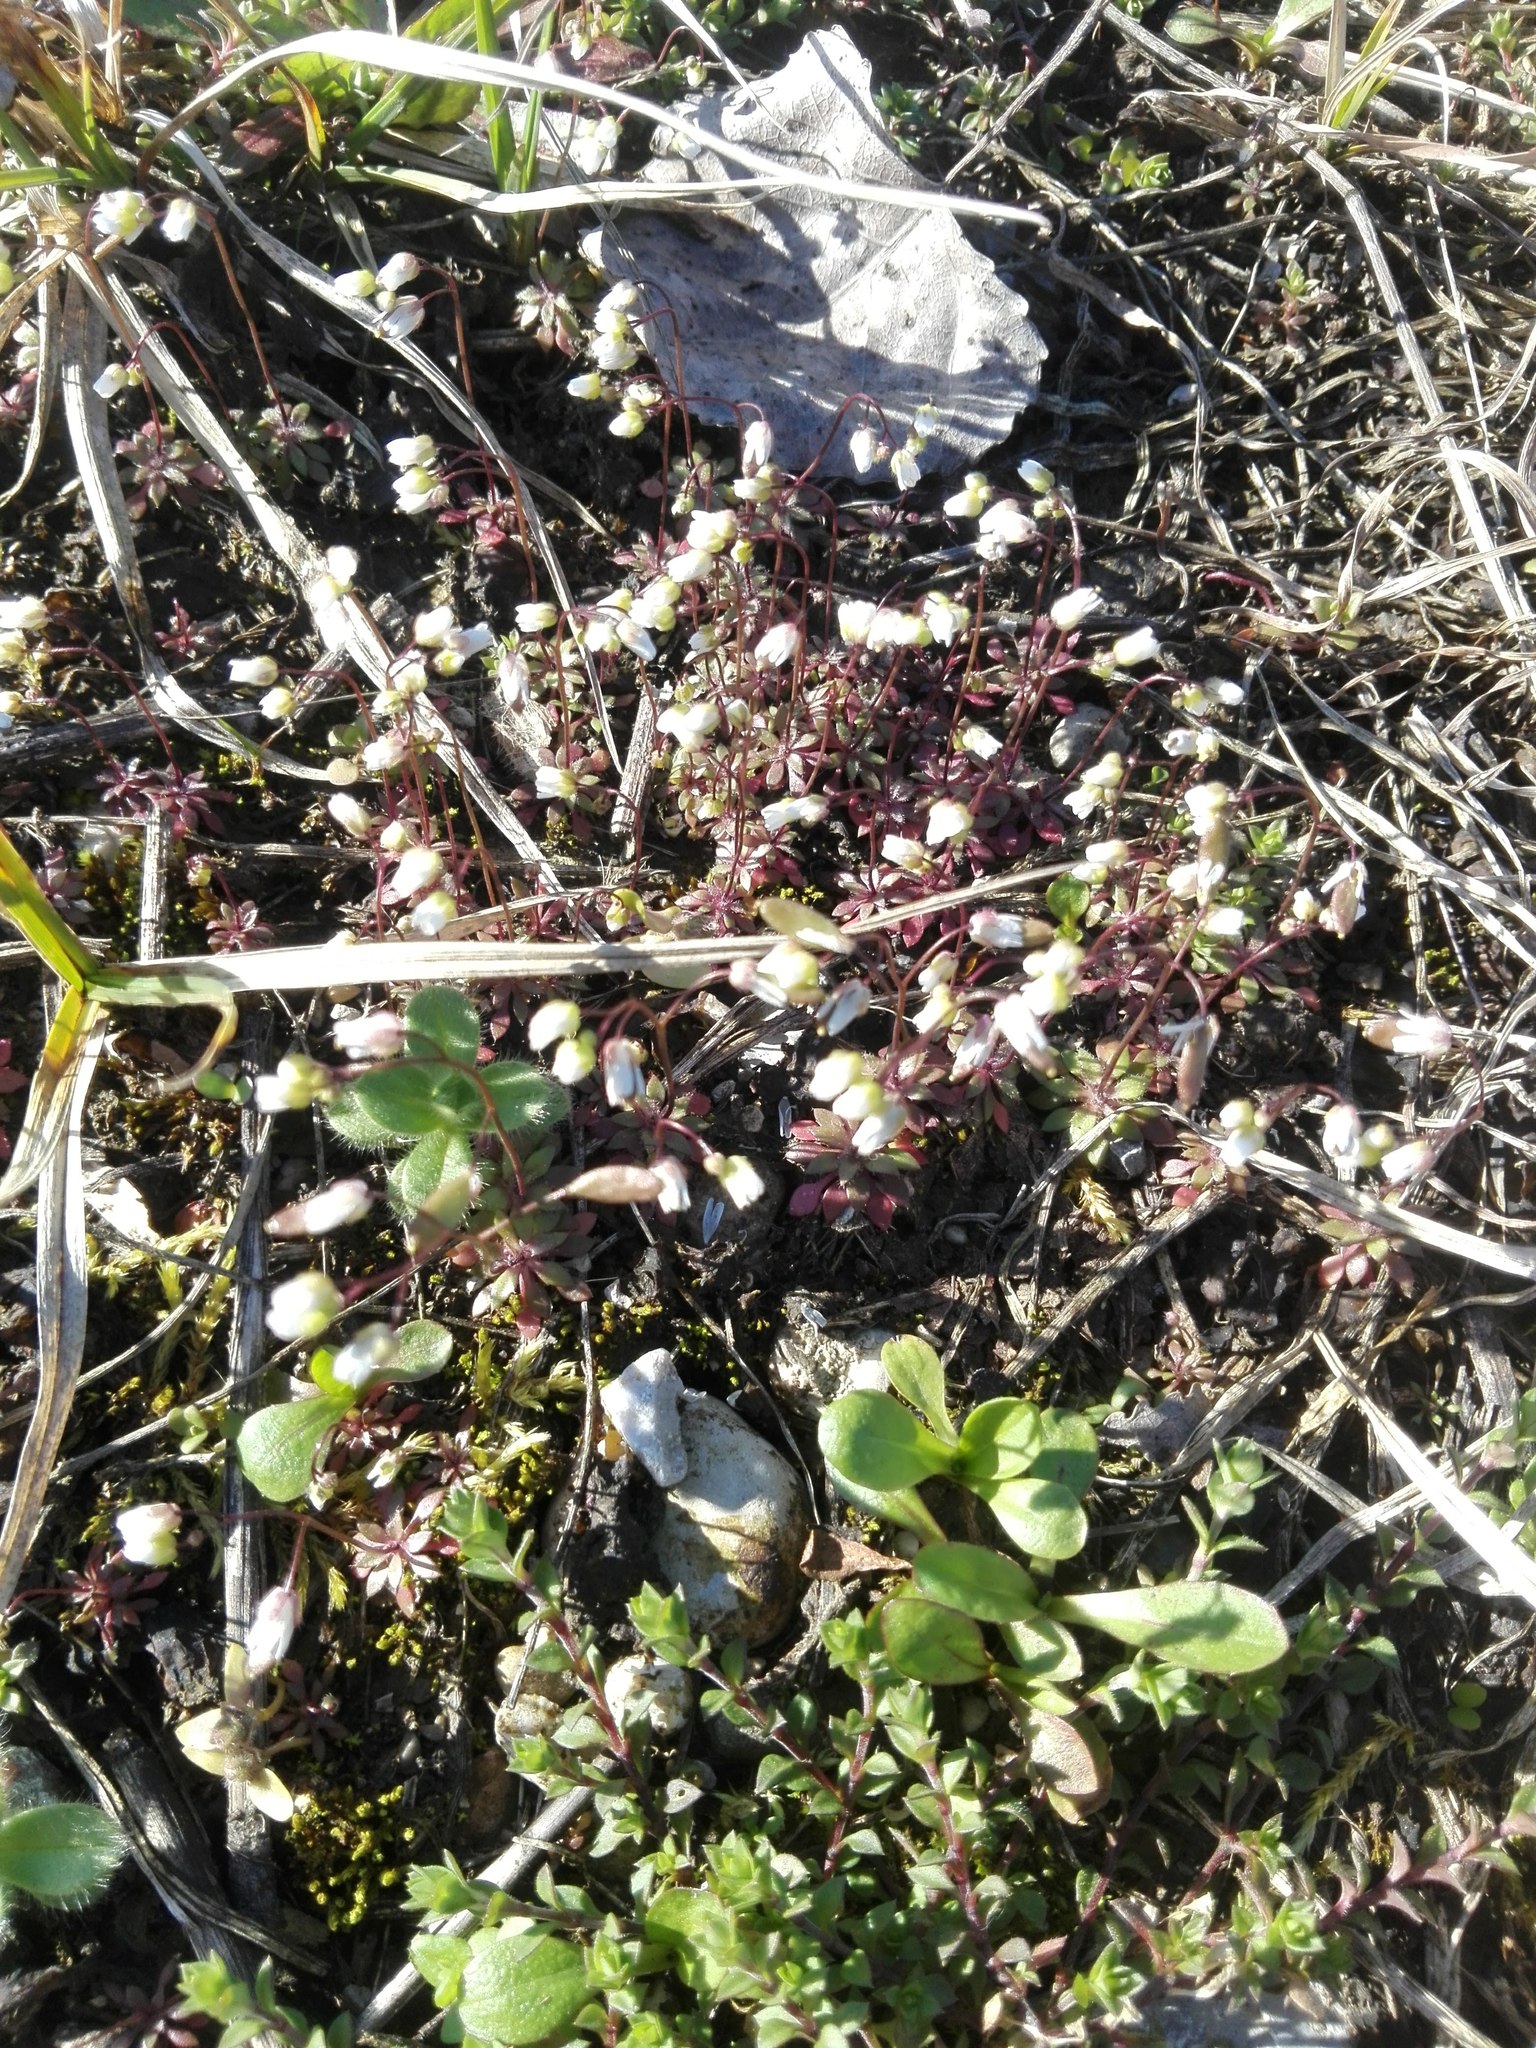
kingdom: Plantae
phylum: Tracheophyta
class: Magnoliopsida
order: Brassicales
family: Brassicaceae
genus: Draba
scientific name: Draba verna
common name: Spring draba
